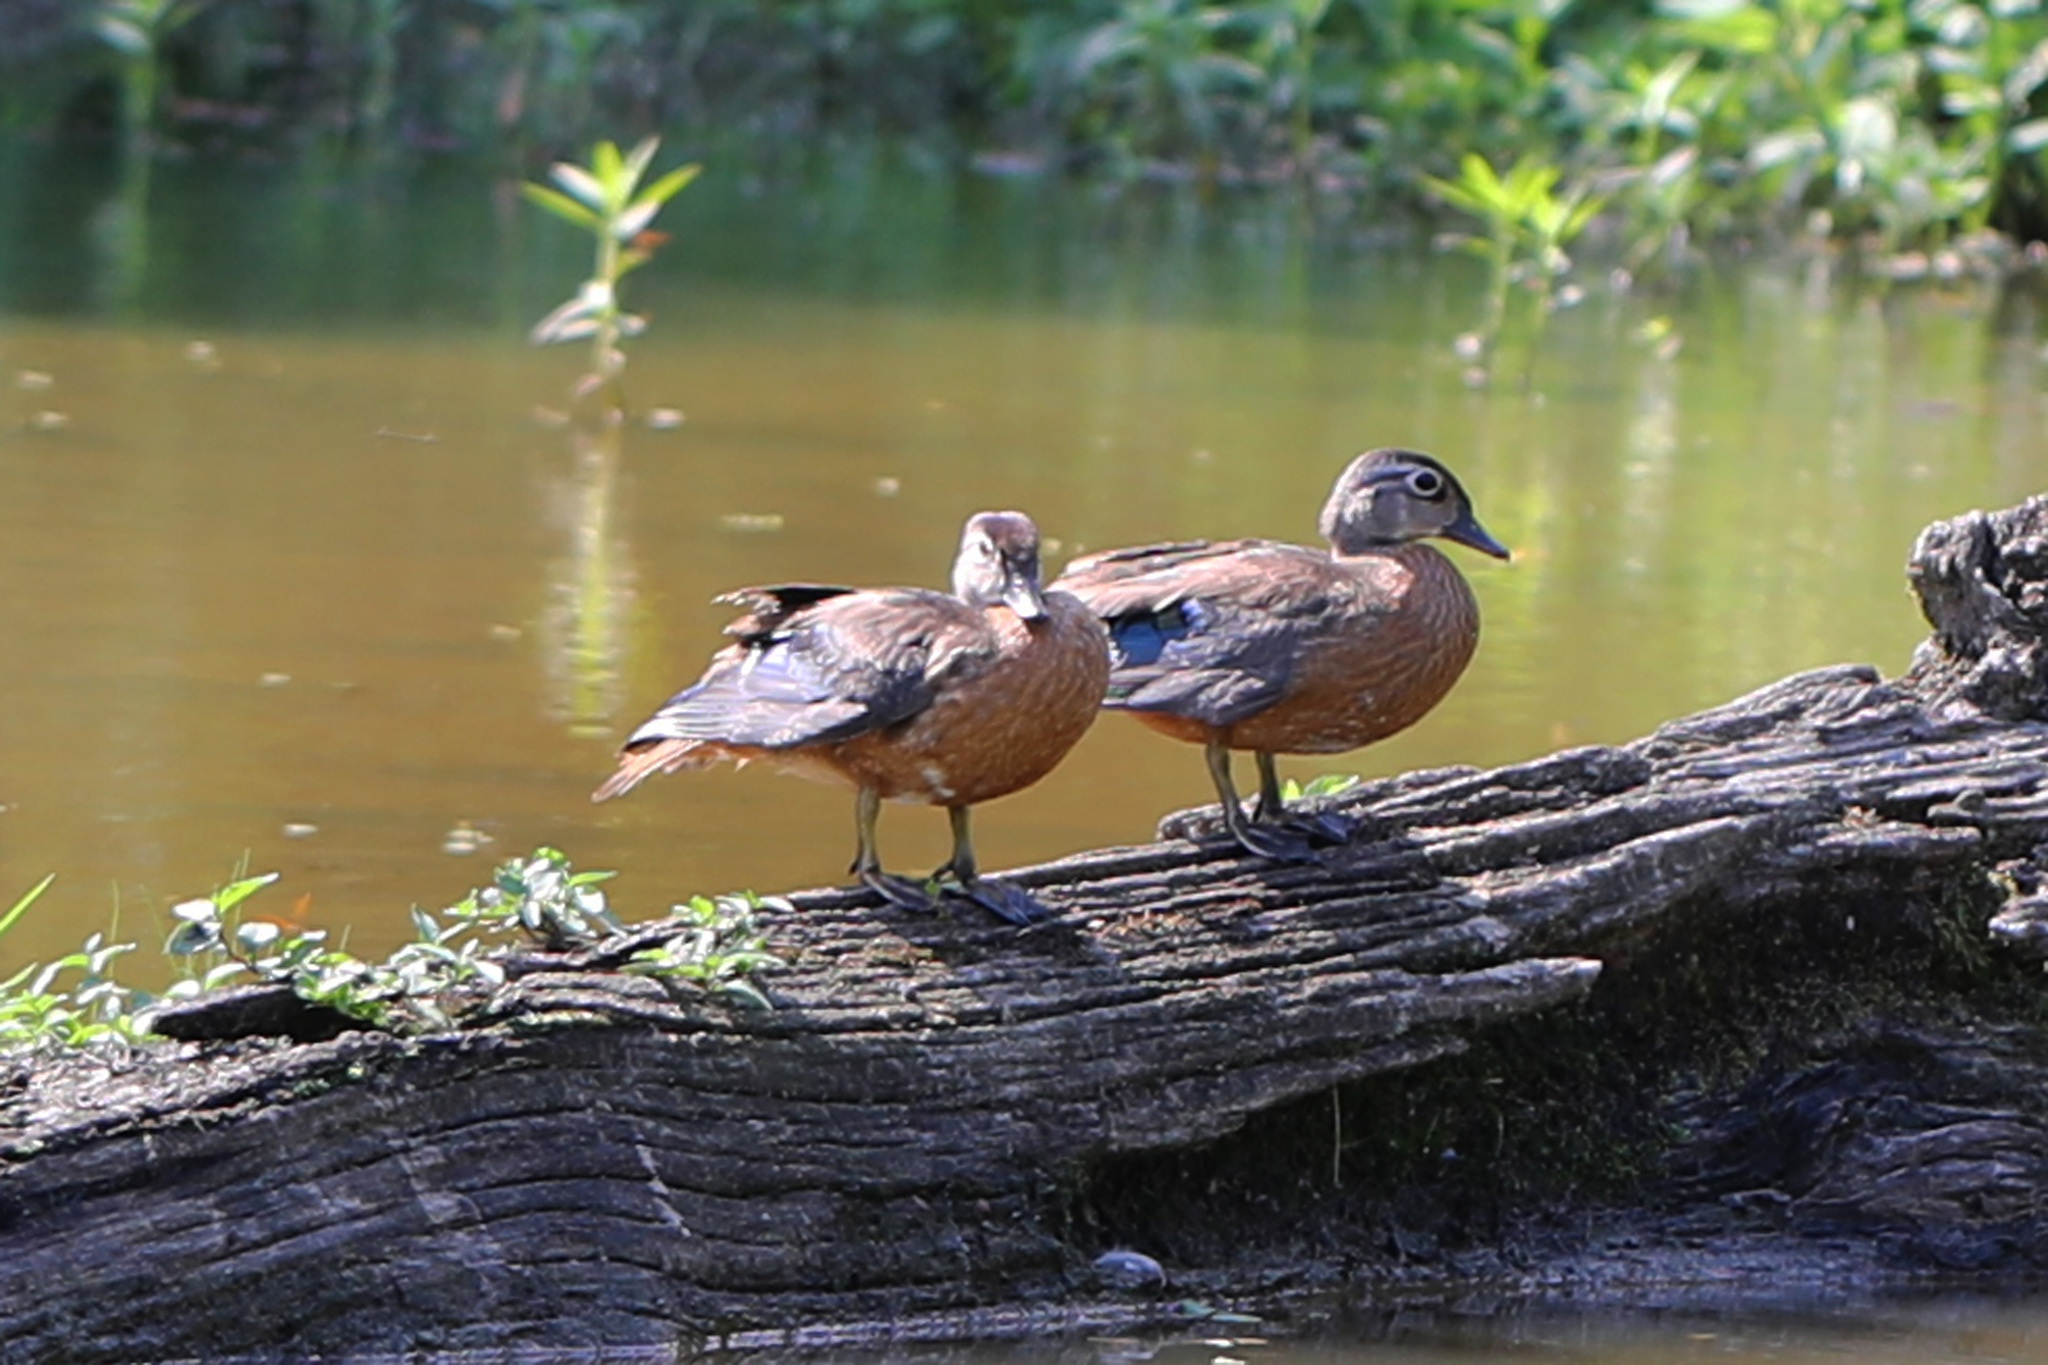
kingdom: Animalia
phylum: Chordata
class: Aves
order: Anseriformes
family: Anatidae
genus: Aix
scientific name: Aix sponsa
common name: Wood duck
